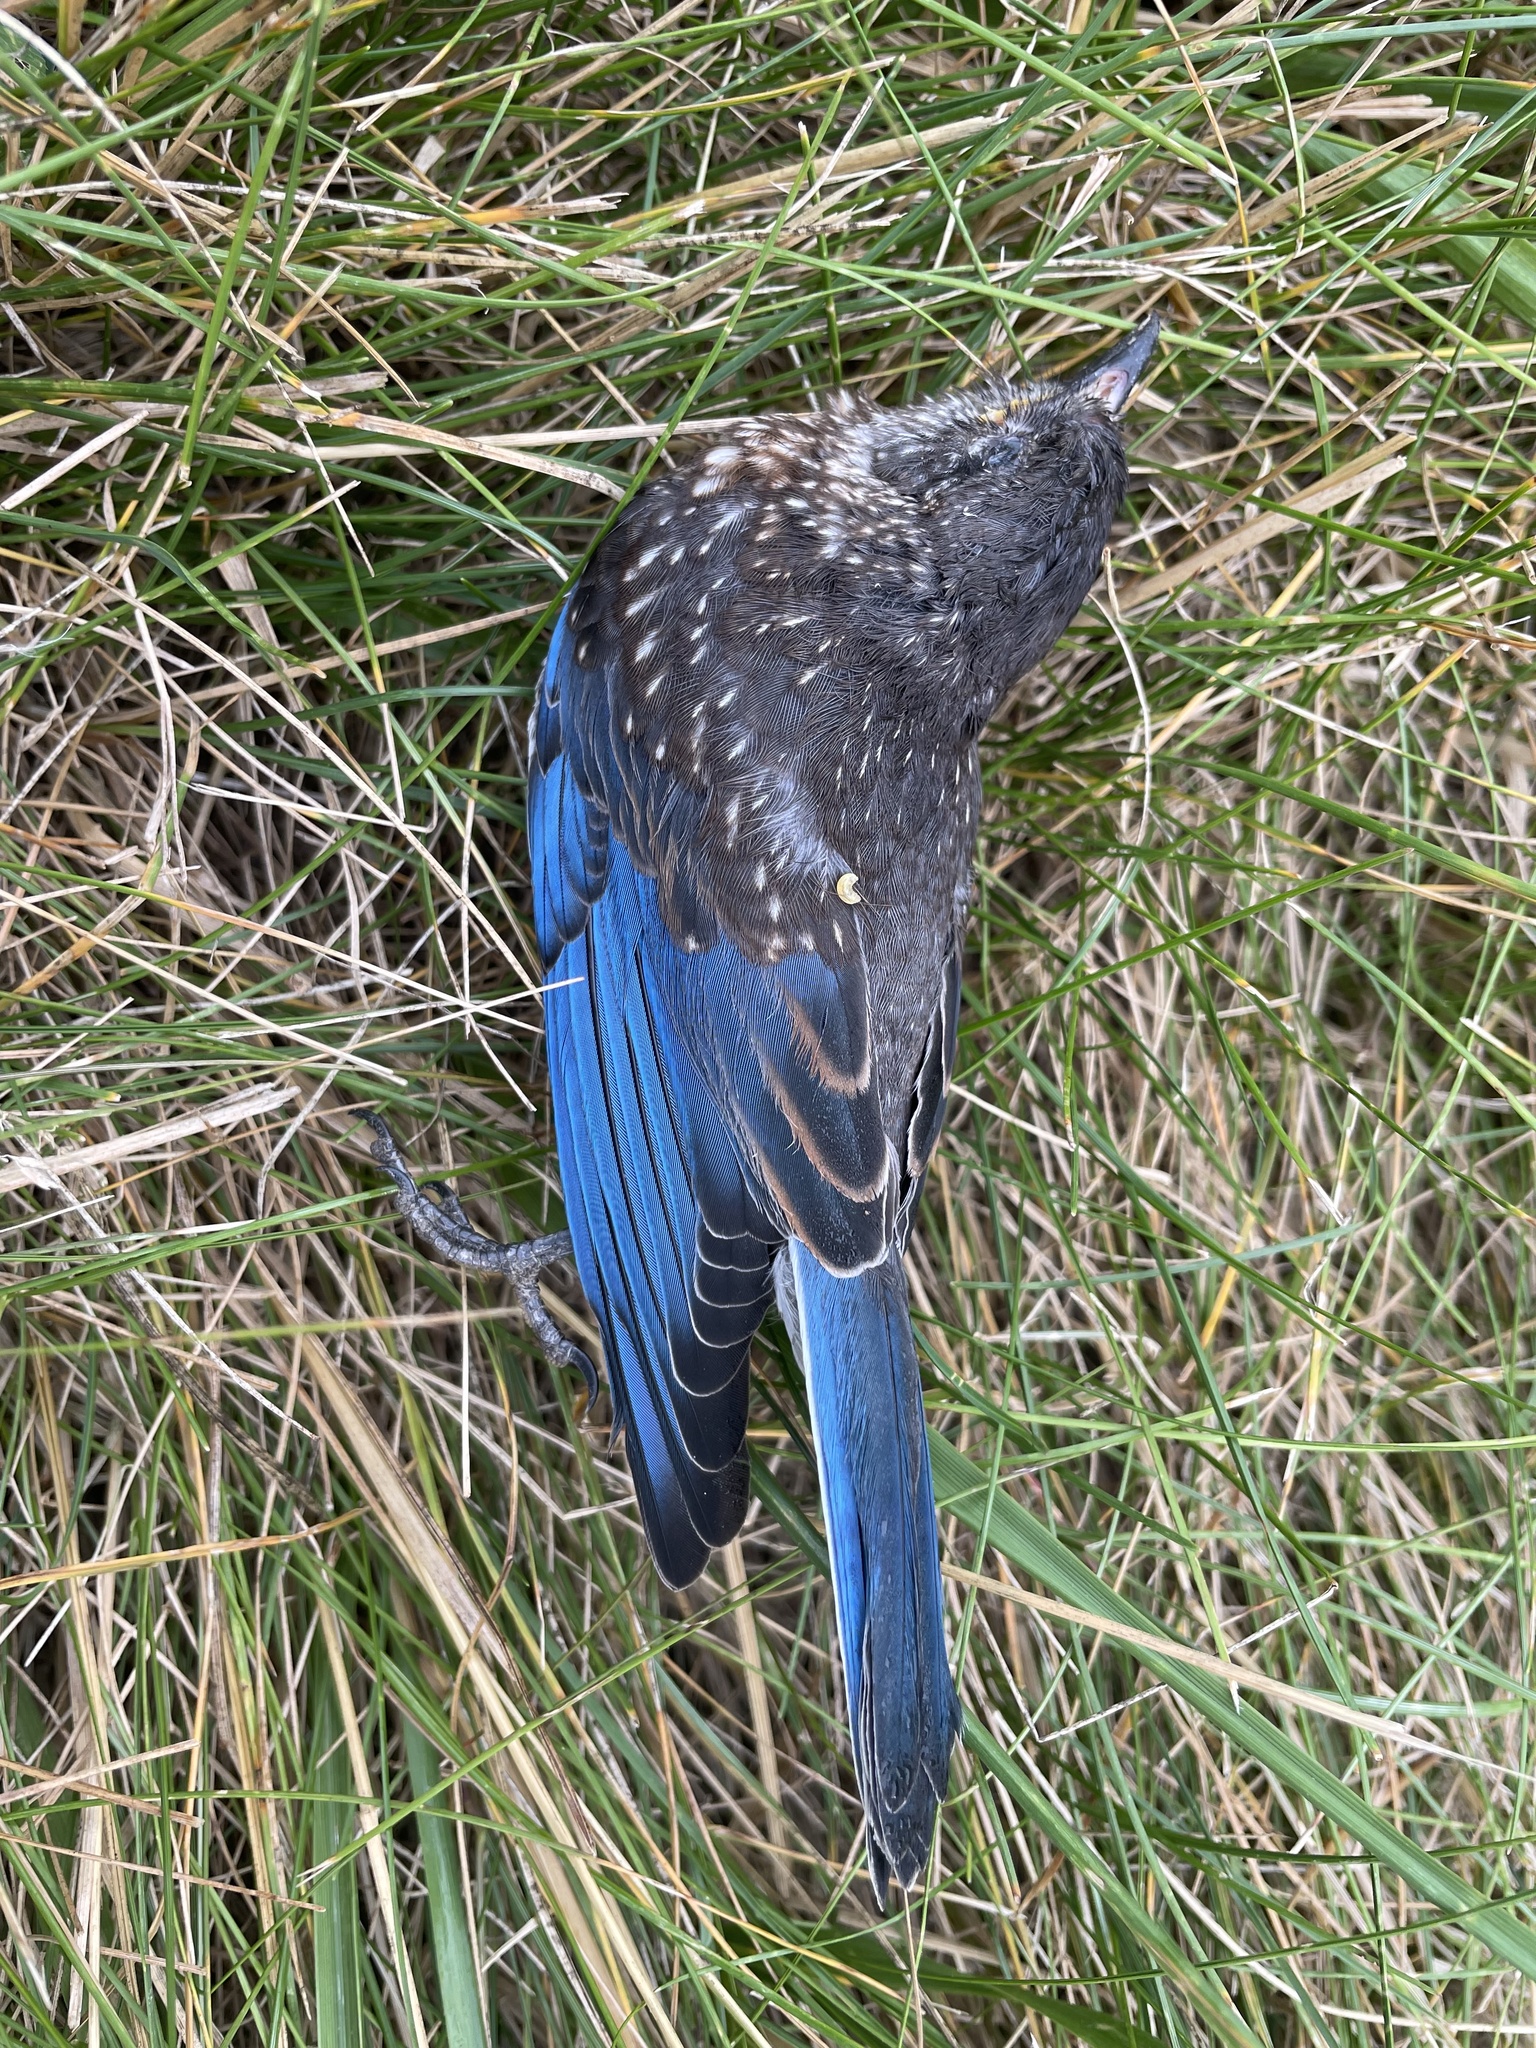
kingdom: Animalia
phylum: Chordata
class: Aves
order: Passeriformes
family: Turdidae
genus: Sialia
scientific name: Sialia sialis
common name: Eastern bluebird
